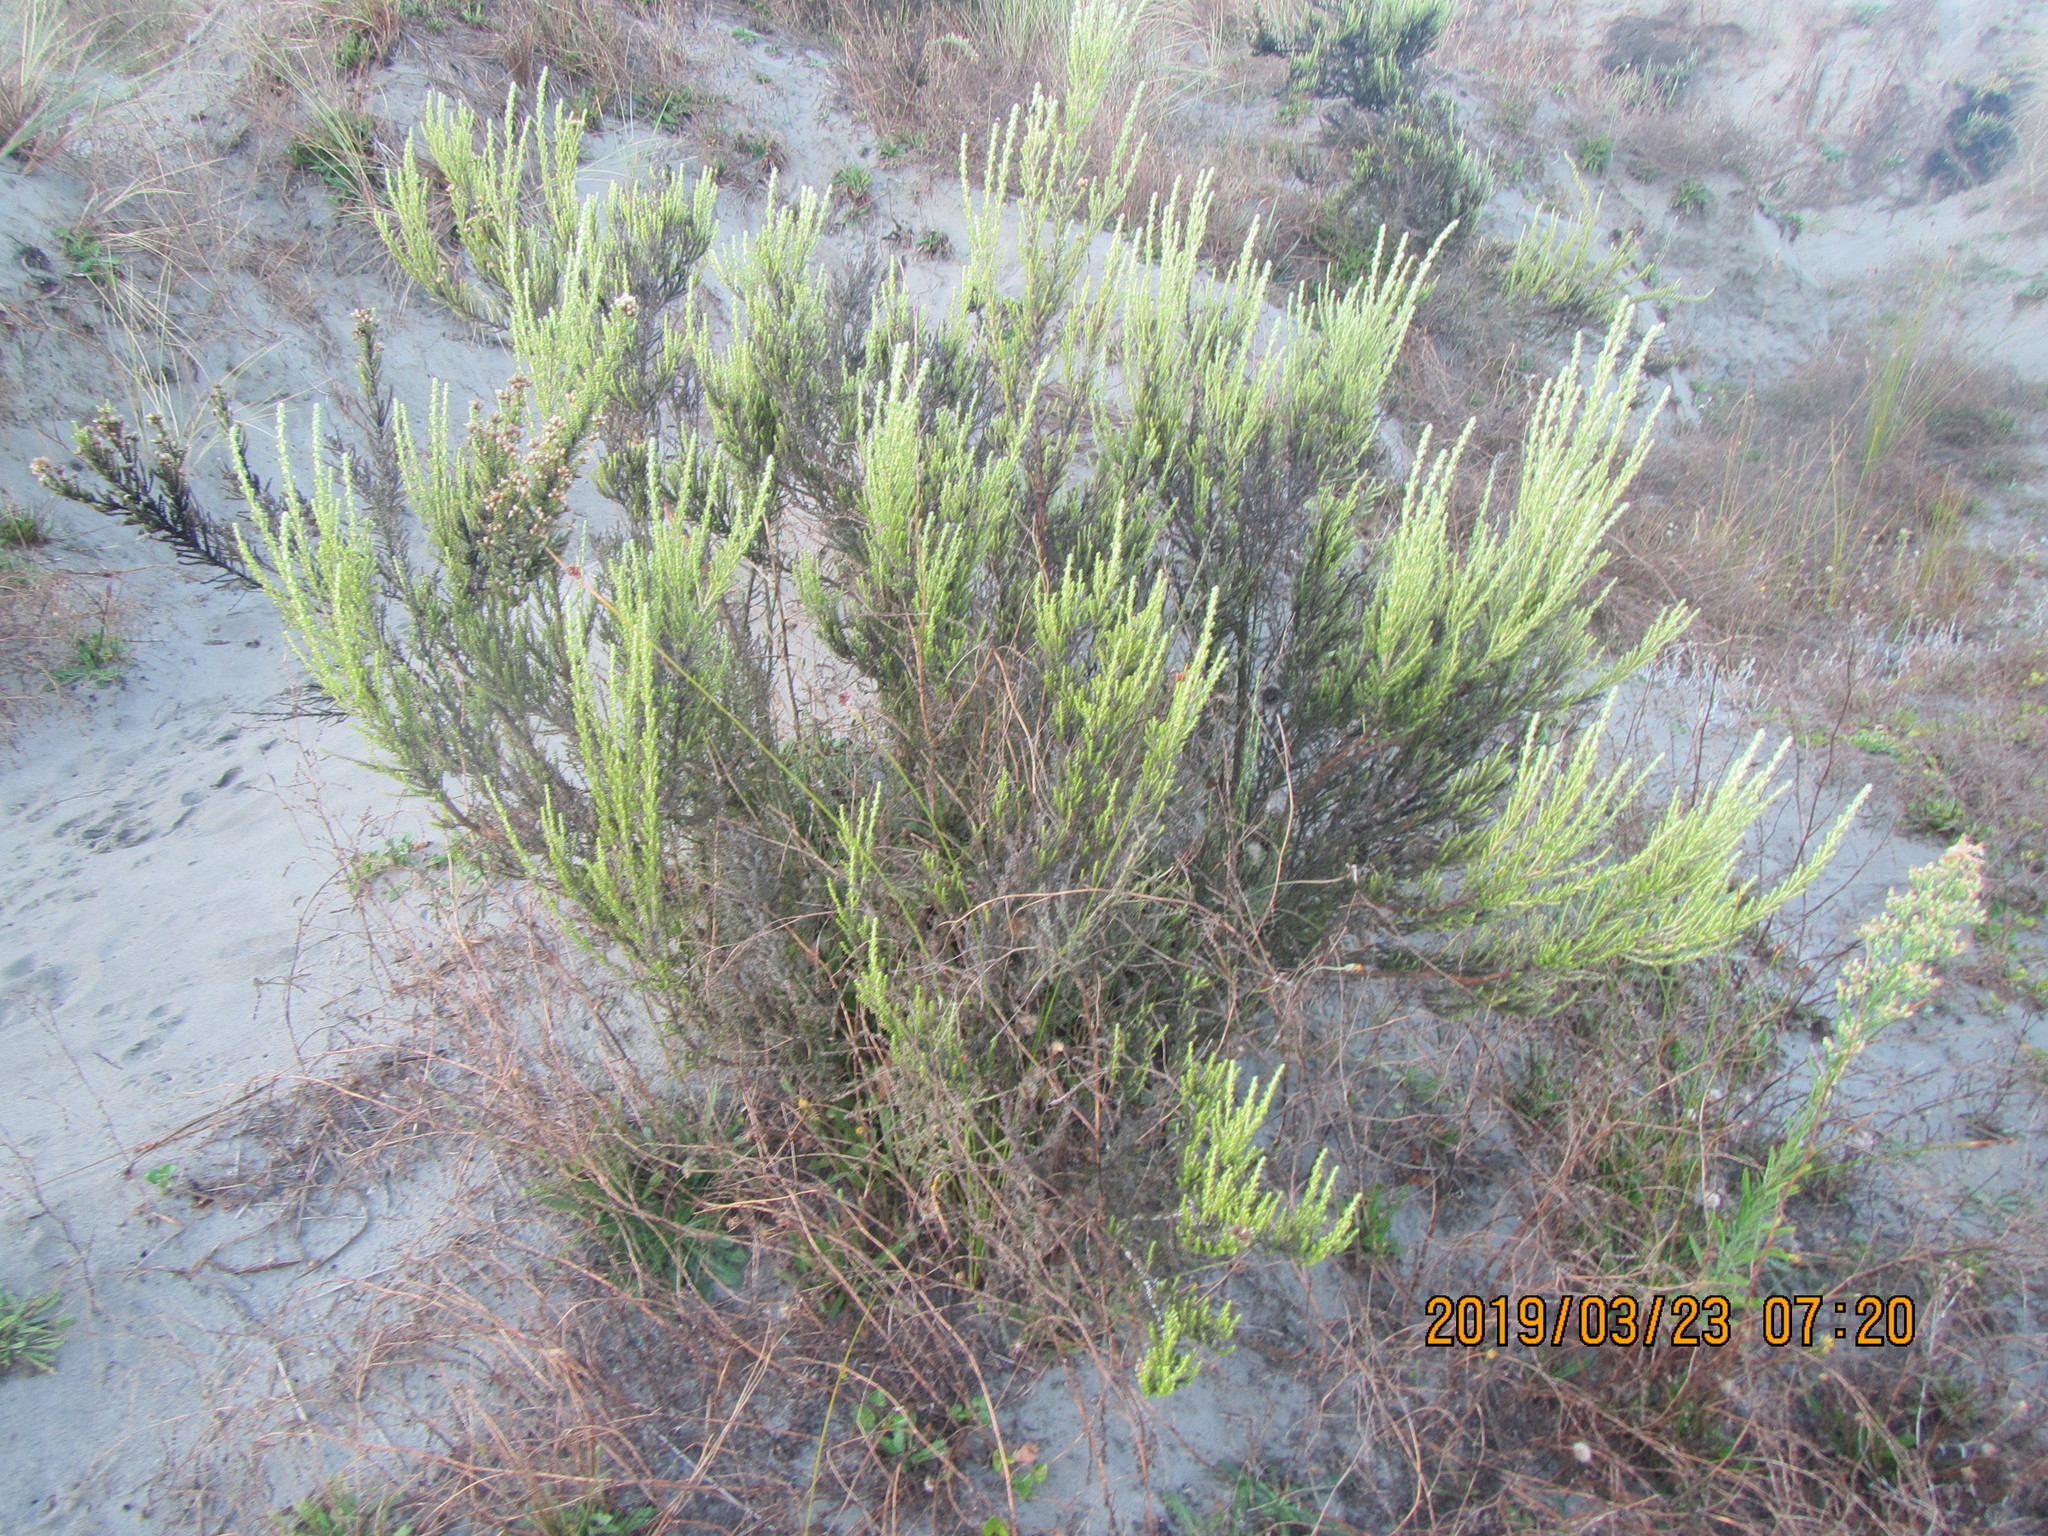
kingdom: Plantae
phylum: Tracheophyta
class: Magnoliopsida
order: Asterales
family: Asteraceae
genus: Ozothamnus
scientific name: Ozothamnus leptophyllus
